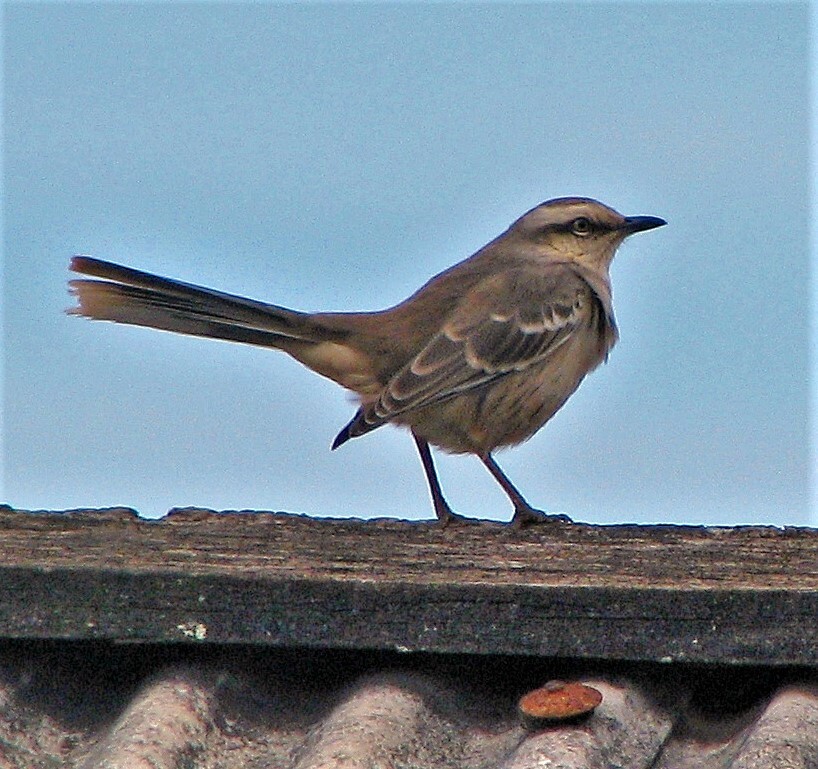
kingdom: Animalia
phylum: Chordata
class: Aves
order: Passeriformes
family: Mimidae
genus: Mimus
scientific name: Mimus saturninus
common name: Chalk-browed mockingbird
